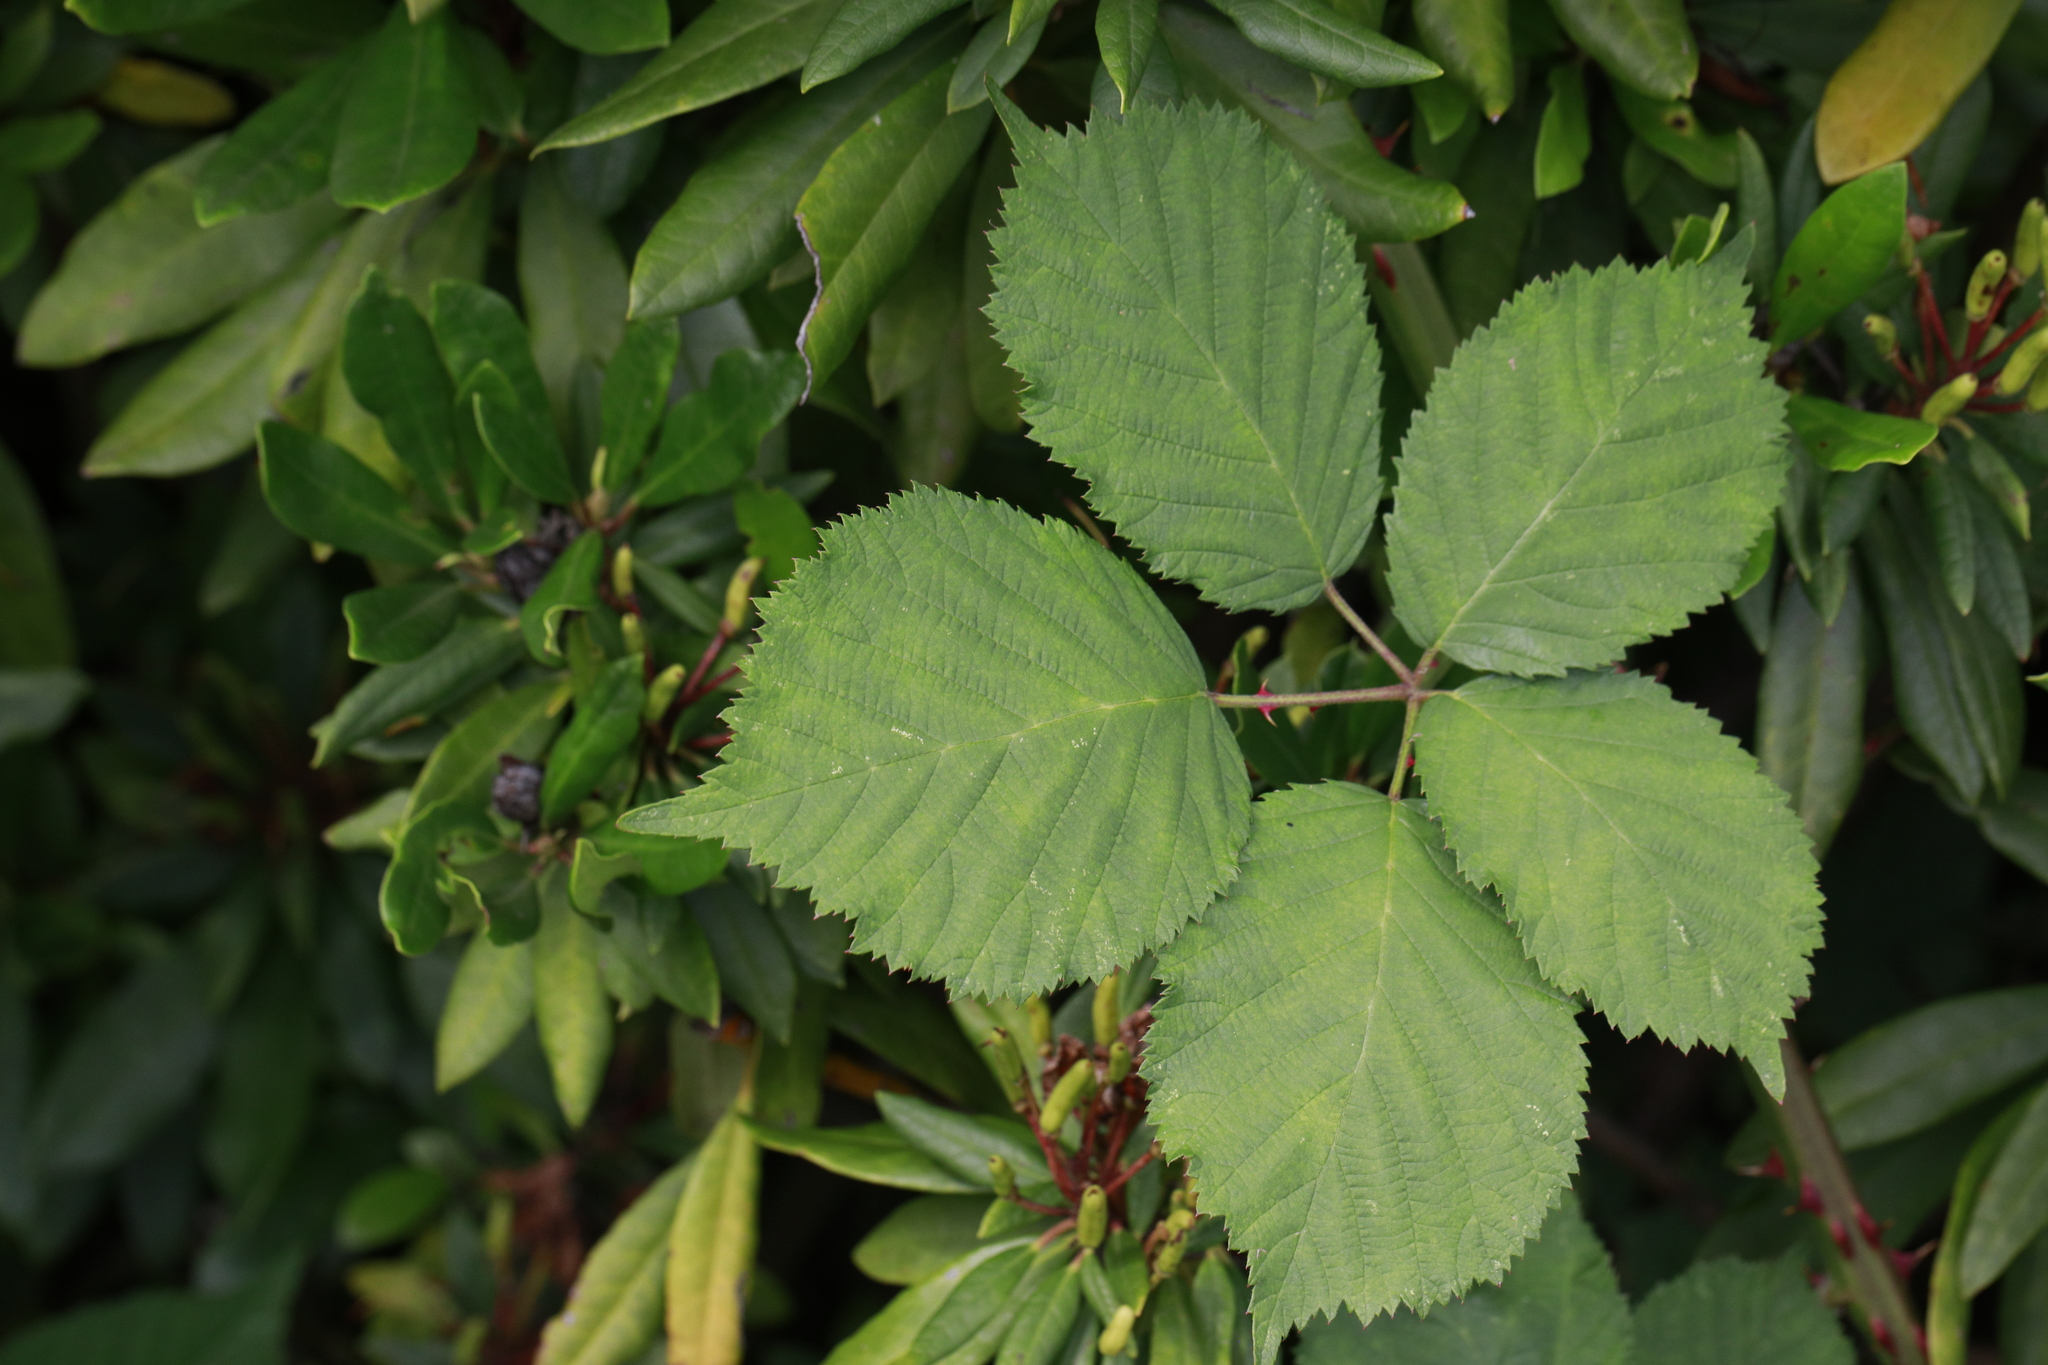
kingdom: Plantae
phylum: Tracheophyta
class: Magnoliopsida
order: Rosales
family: Rosaceae
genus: Rubus
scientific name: Rubus armeniacus
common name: Himalayan blackberry
